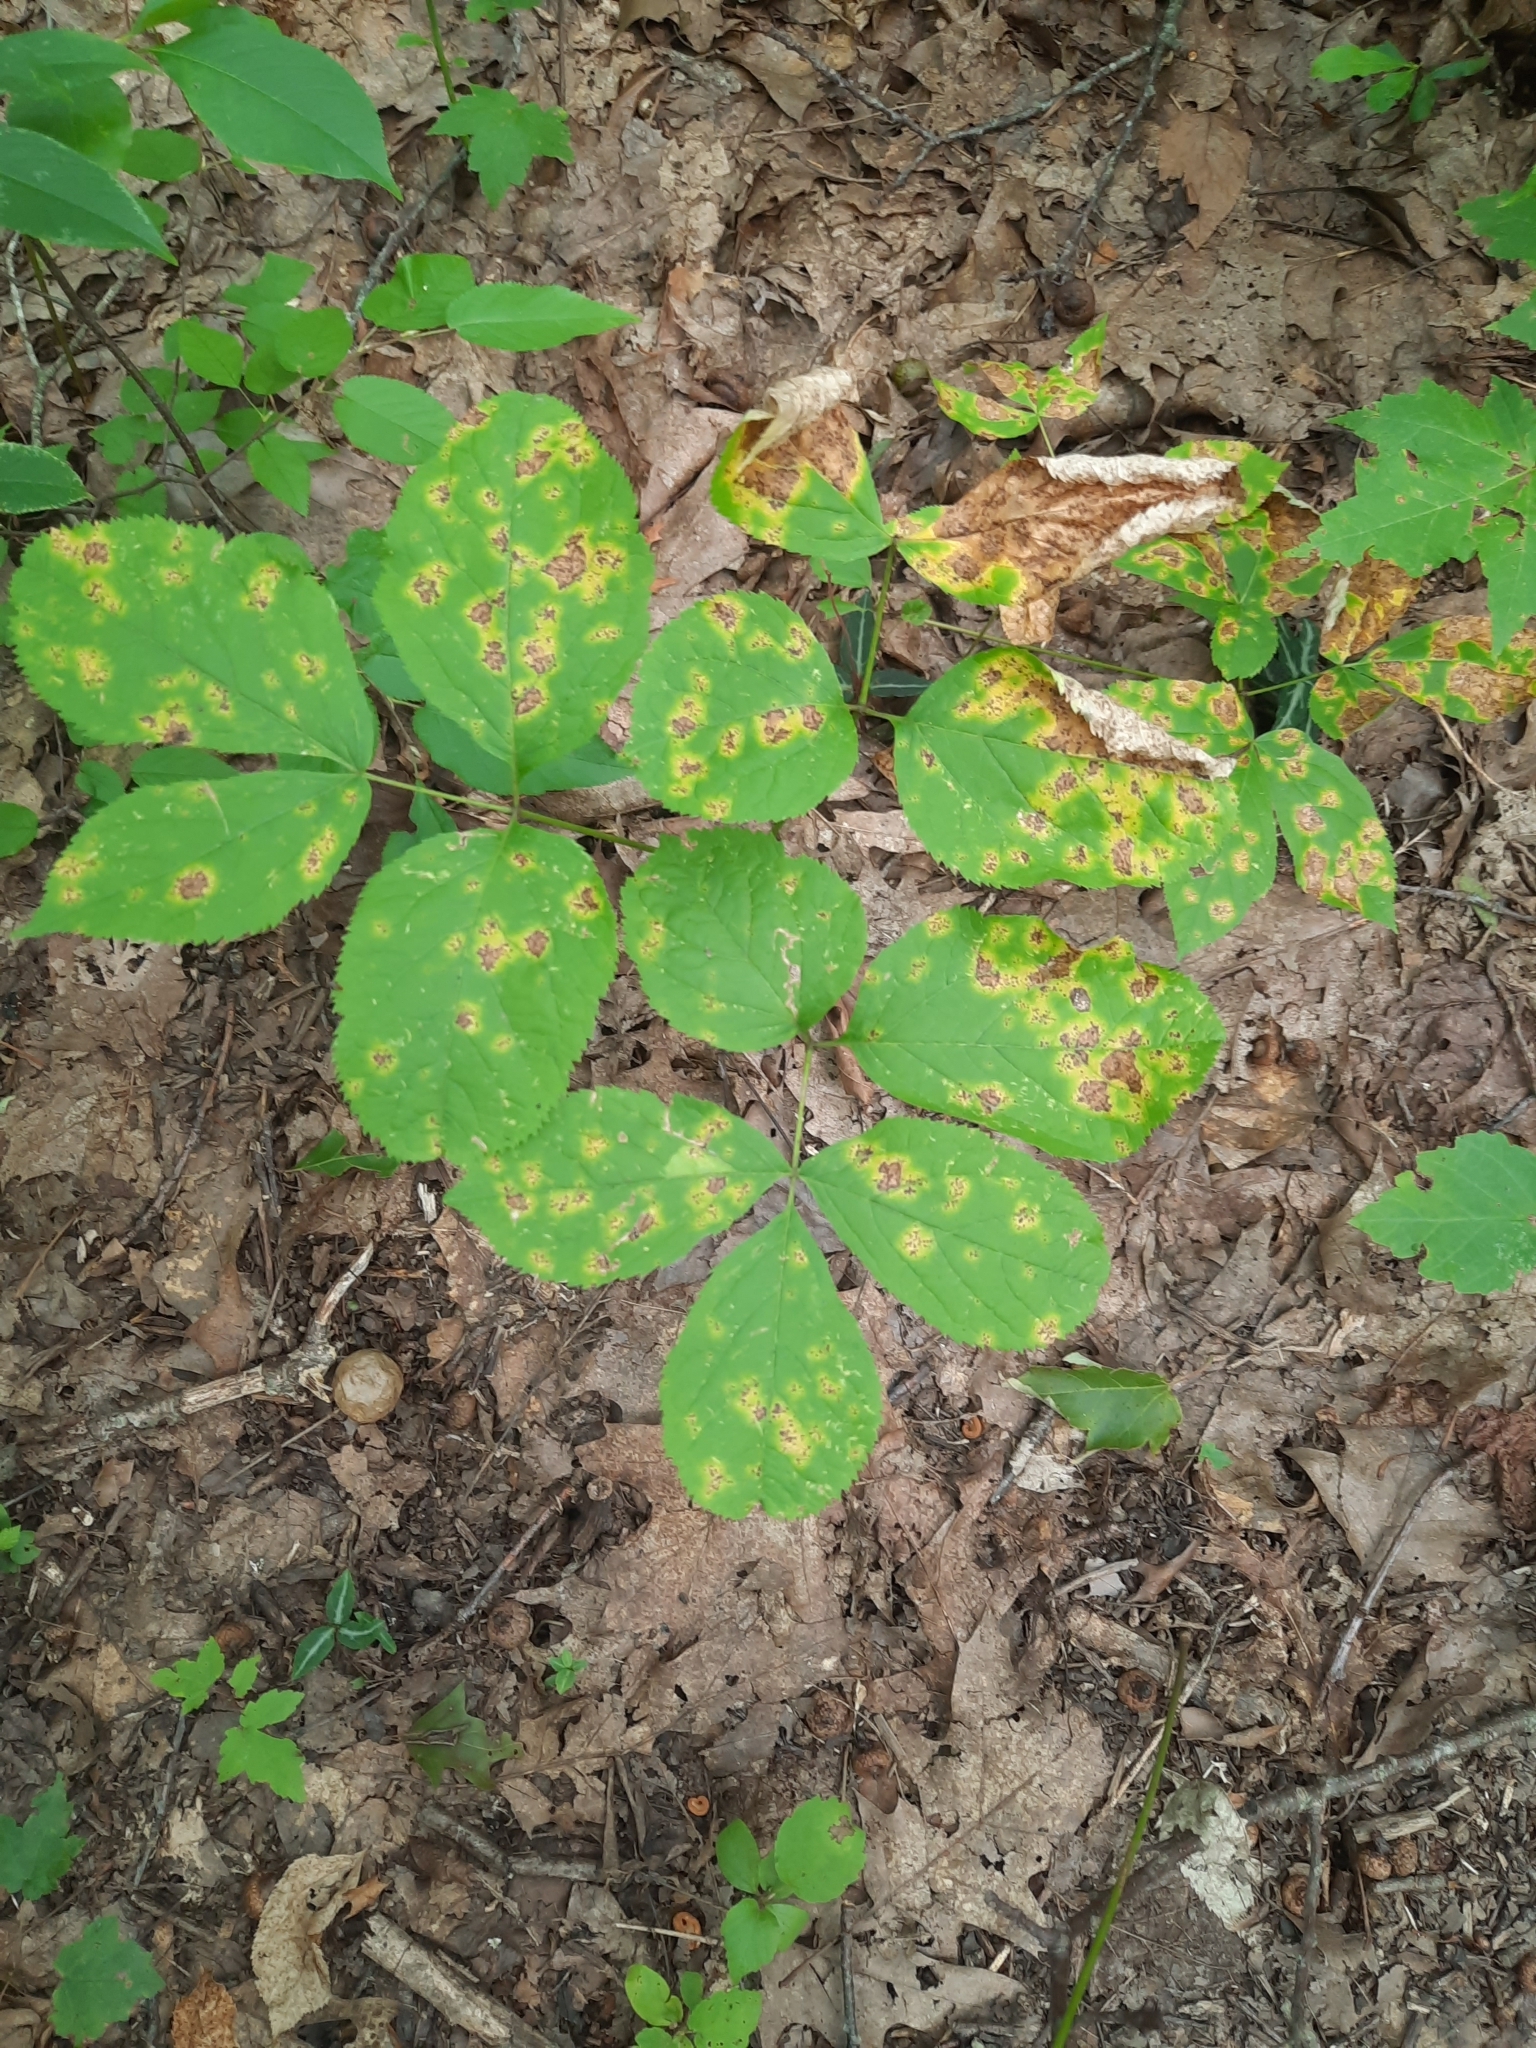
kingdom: Plantae
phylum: Tracheophyta
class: Magnoliopsida
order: Apiales
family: Araliaceae
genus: Aralia
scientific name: Aralia nudicaulis
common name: Wild sarsaparilla
